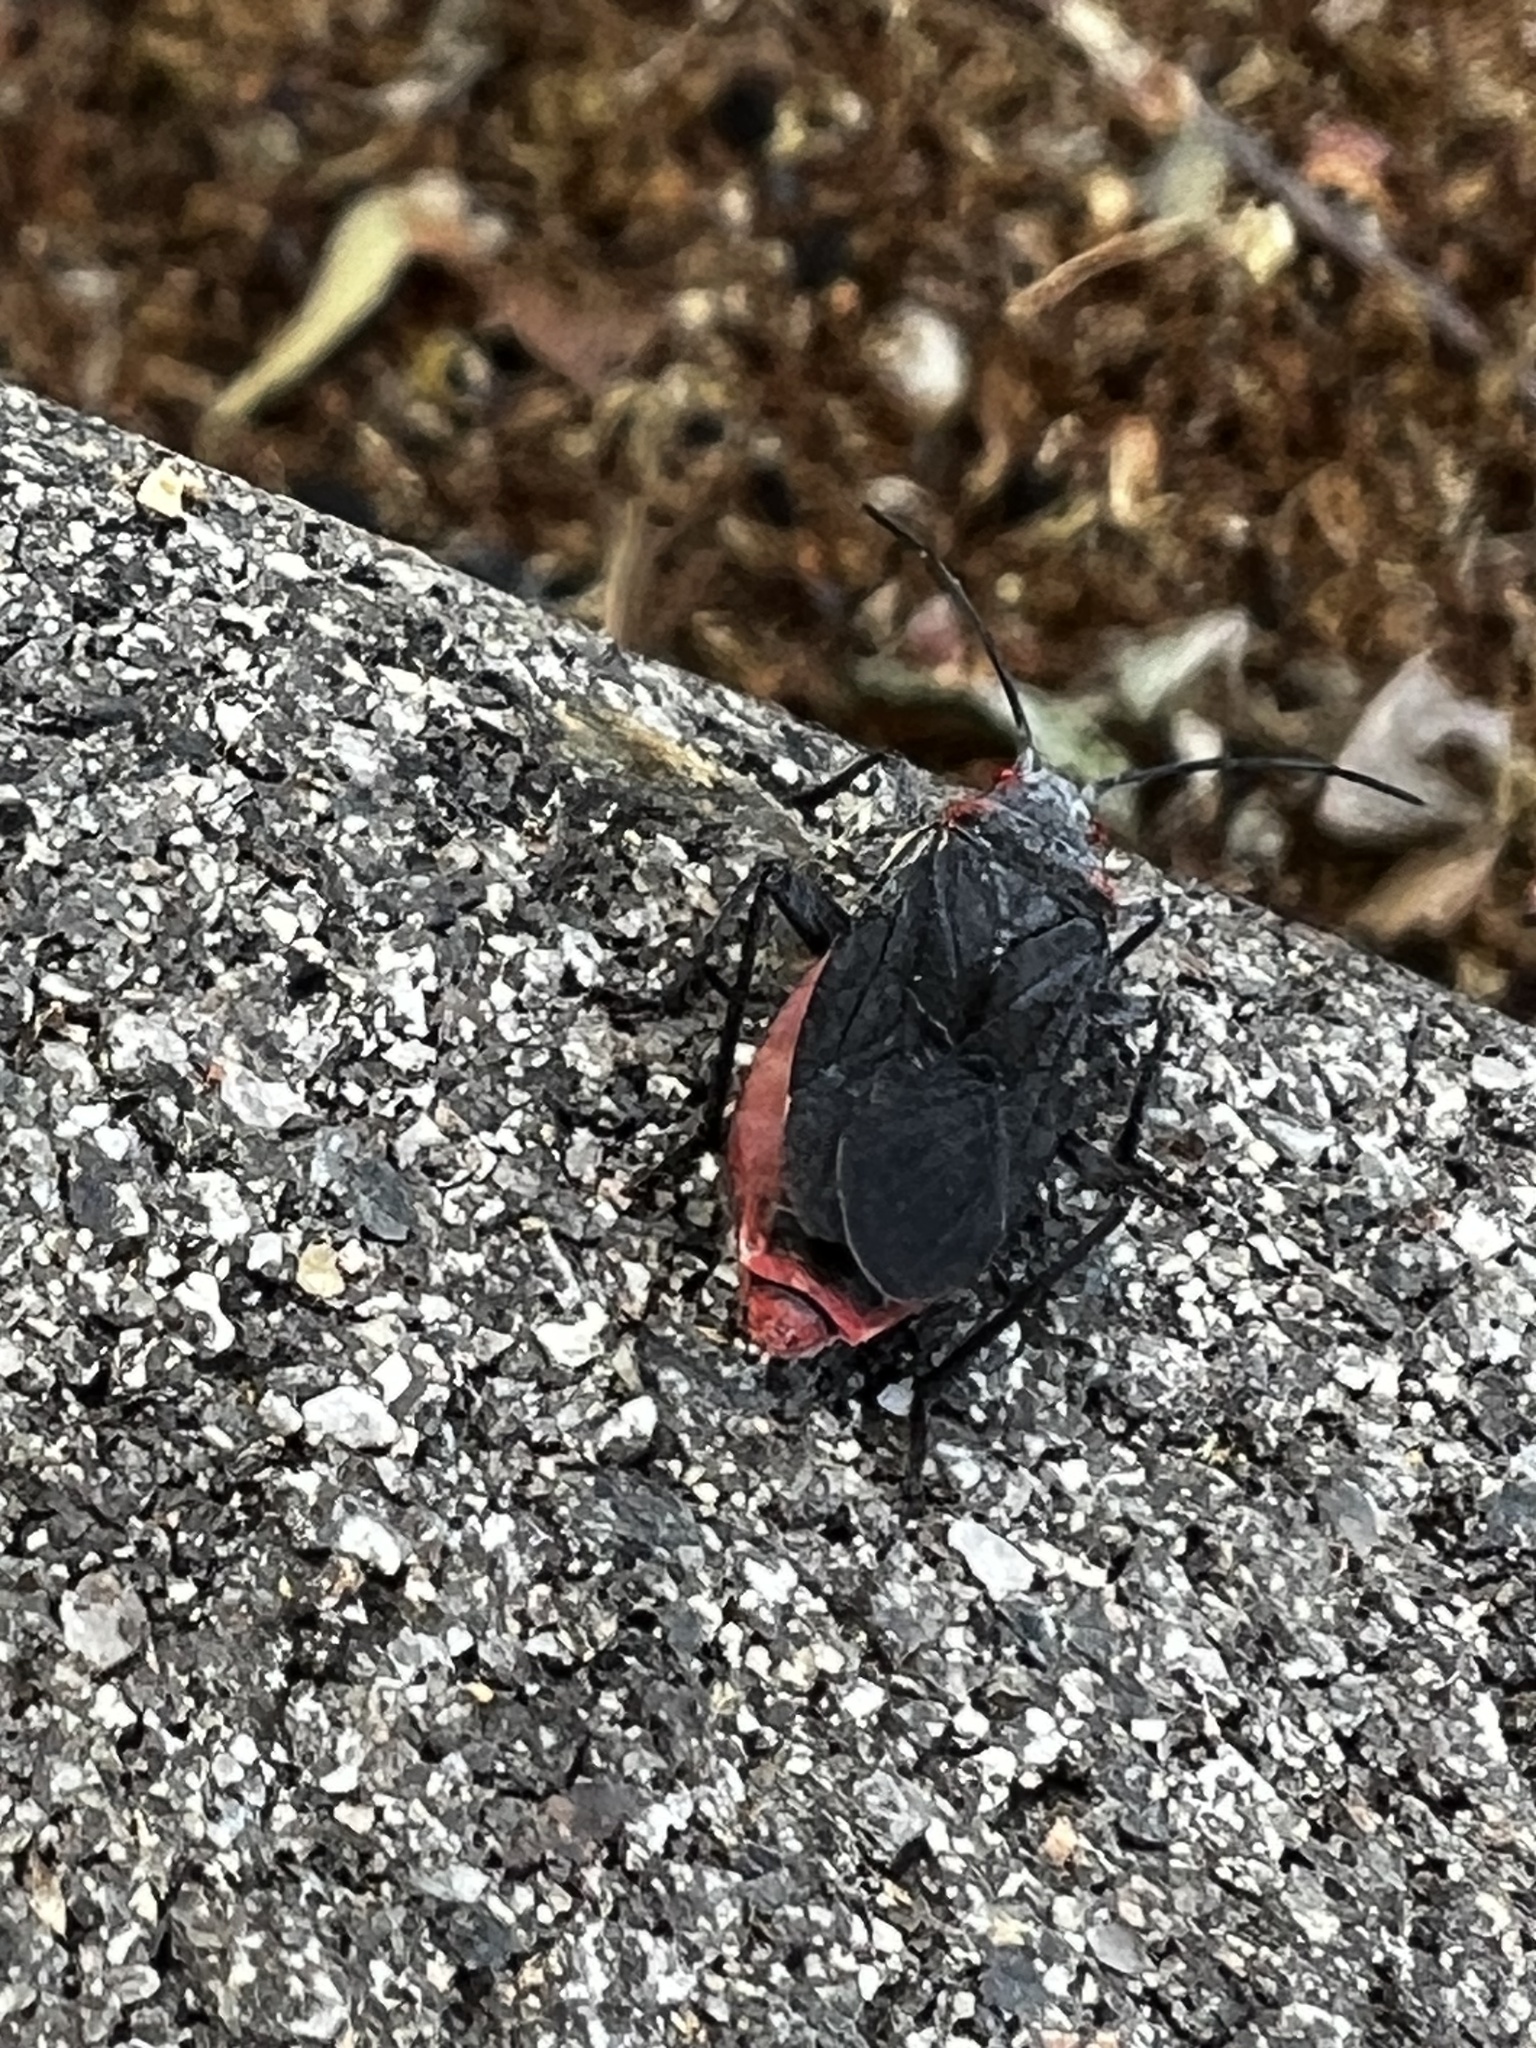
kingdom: Animalia
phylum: Arthropoda
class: Insecta
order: Hemiptera
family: Rhopalidae
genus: Jadera
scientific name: Jadera haematoloma
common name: Red-shouldered bug
